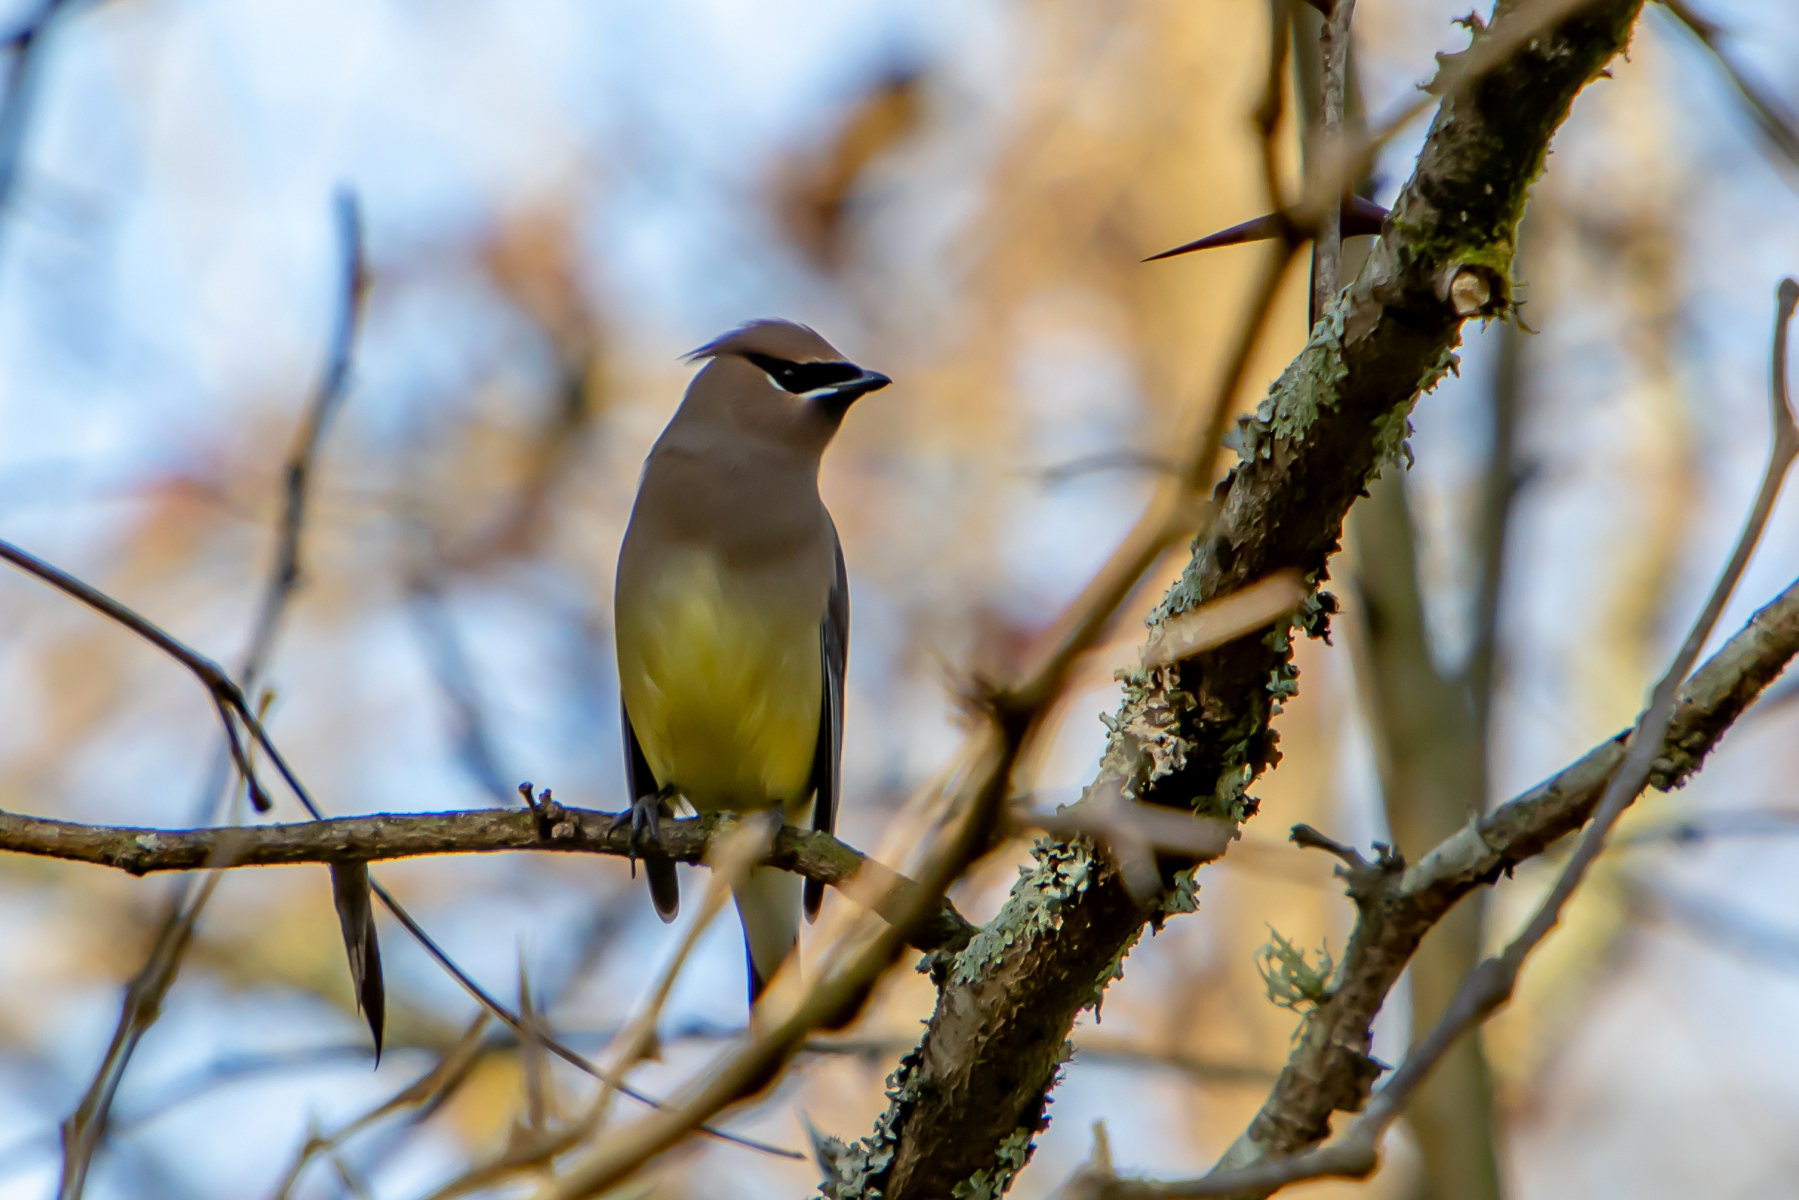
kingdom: Animalia
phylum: Chordata
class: Aves
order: Passeriformes
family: Bombycillidae
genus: Bombycilla
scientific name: Bombycilla cedrorum
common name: Cedar waxwing
